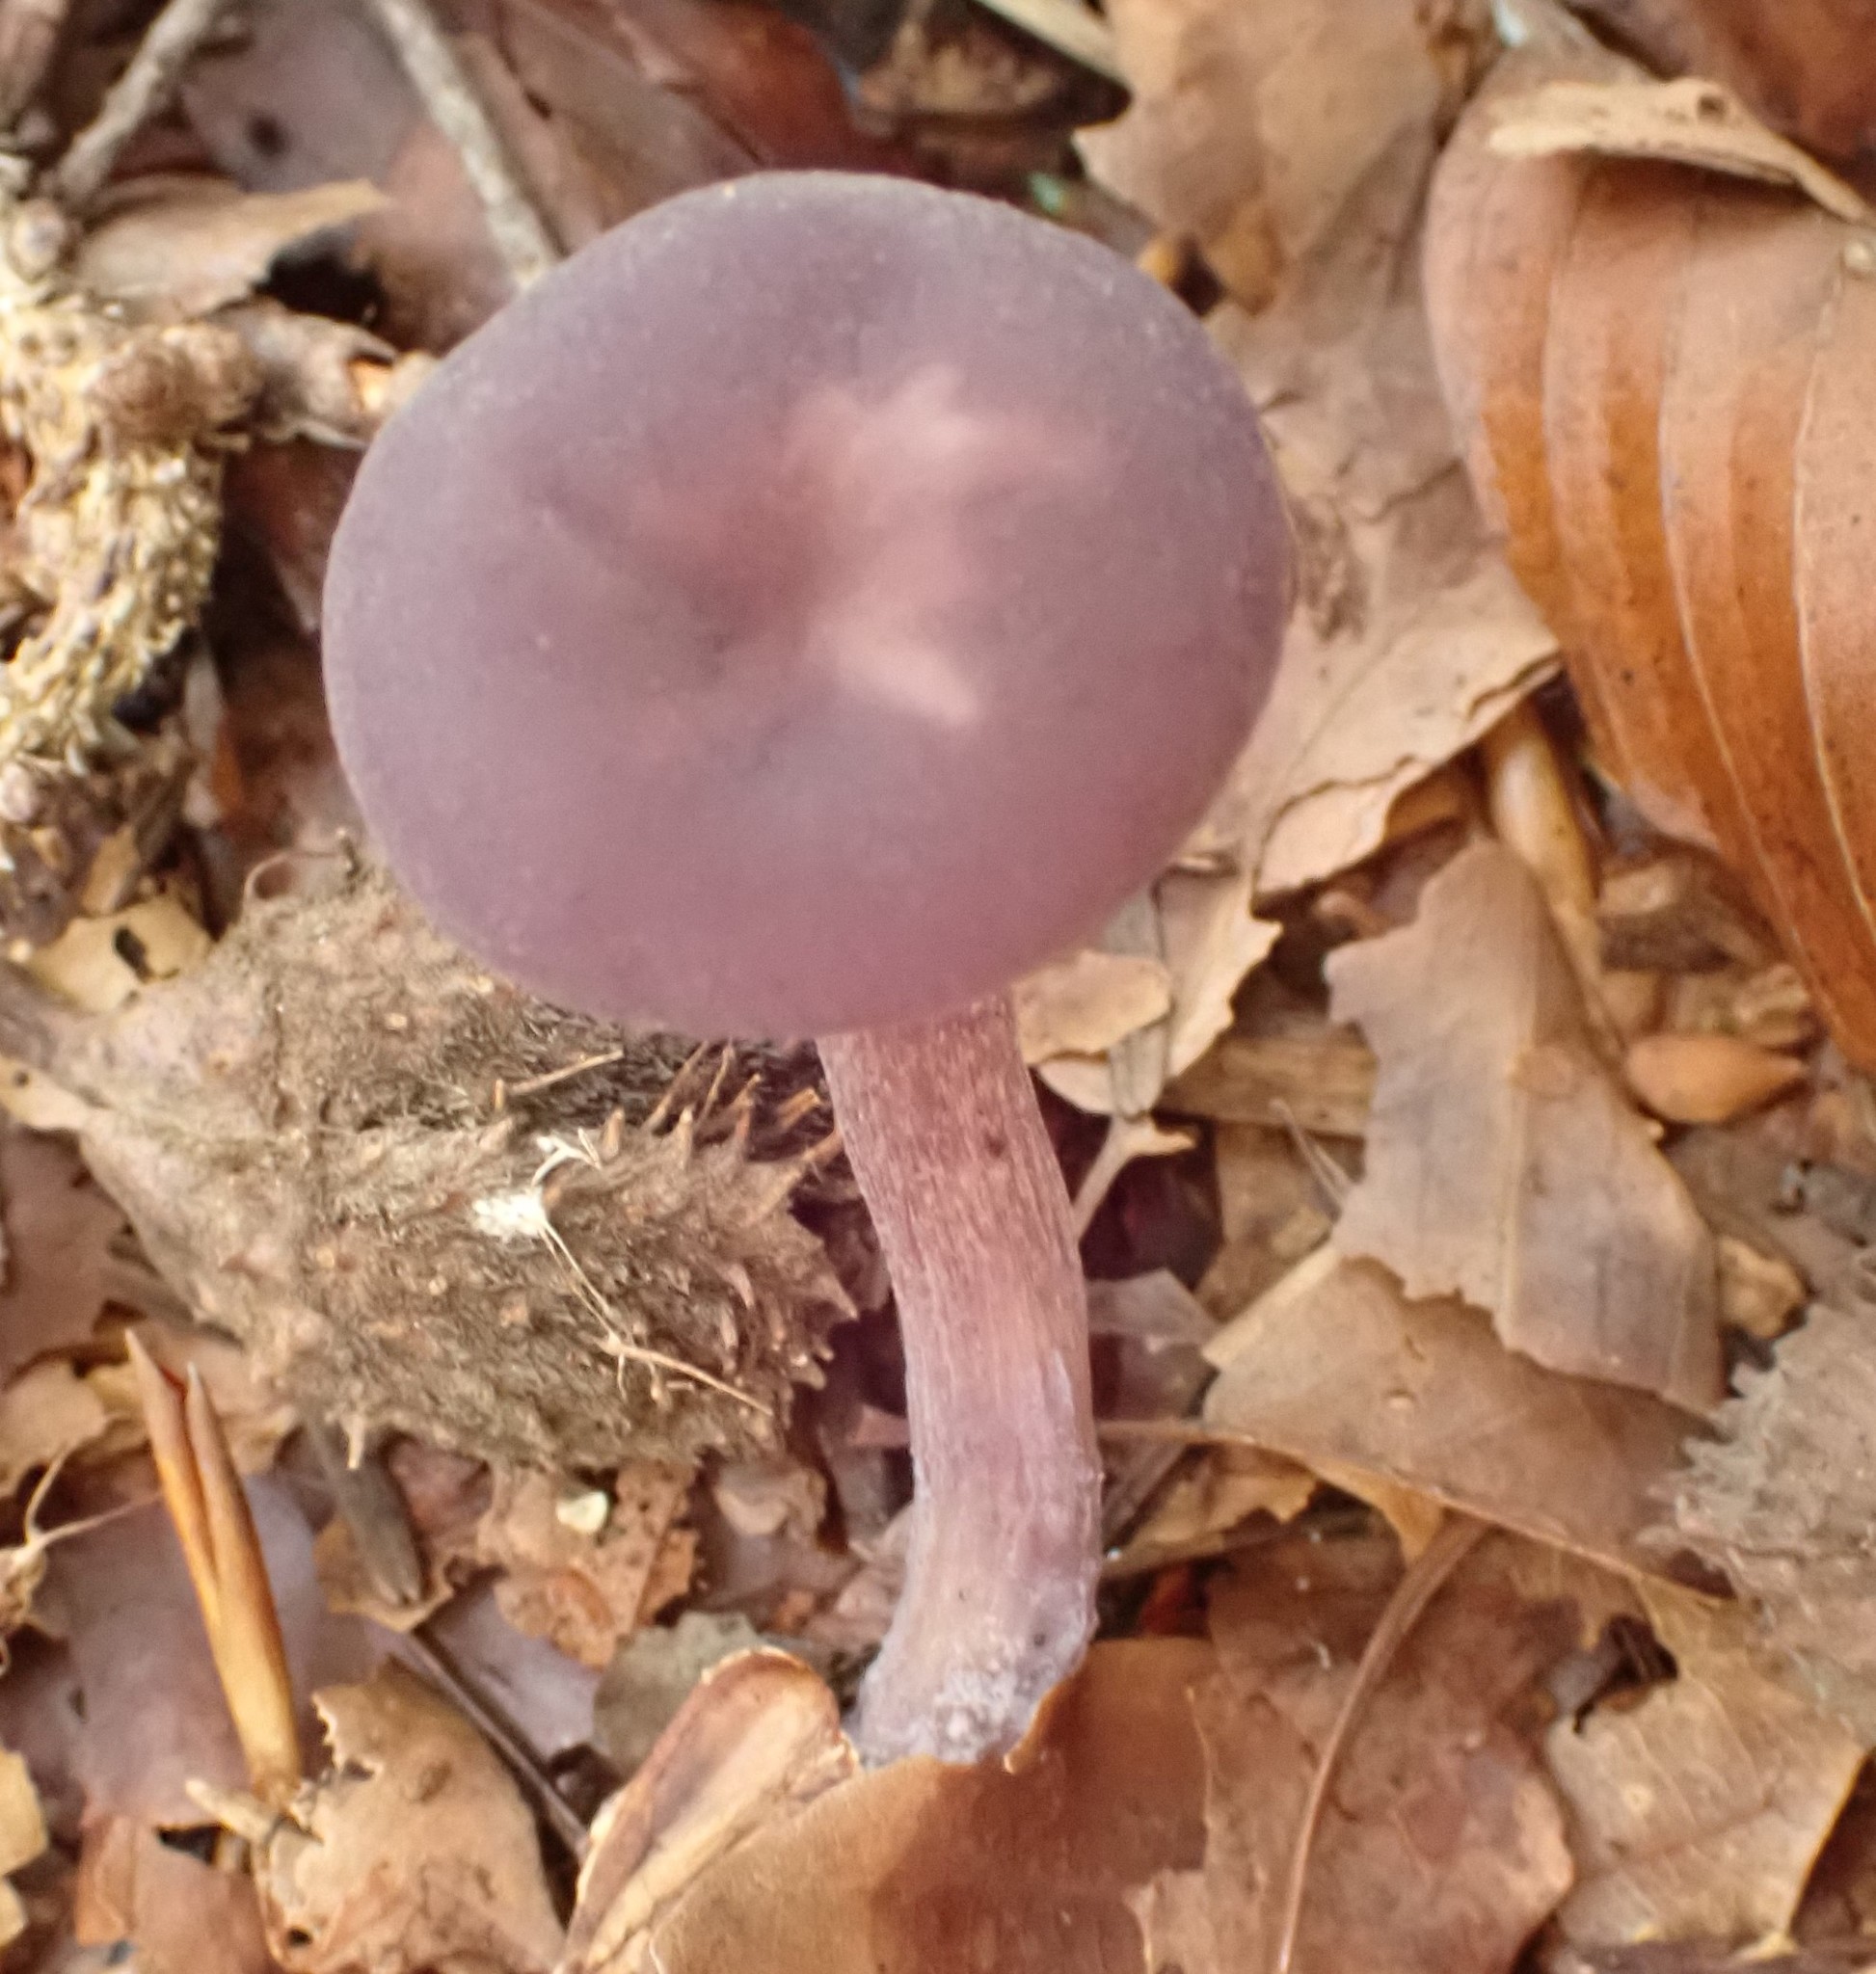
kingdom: Fungi
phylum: Basidiomycota
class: Agaricomycetes
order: Agaricales
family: Hydnangiaceae
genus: Laccaria
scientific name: Laccaria amethystina
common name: Amethyst deceiver
